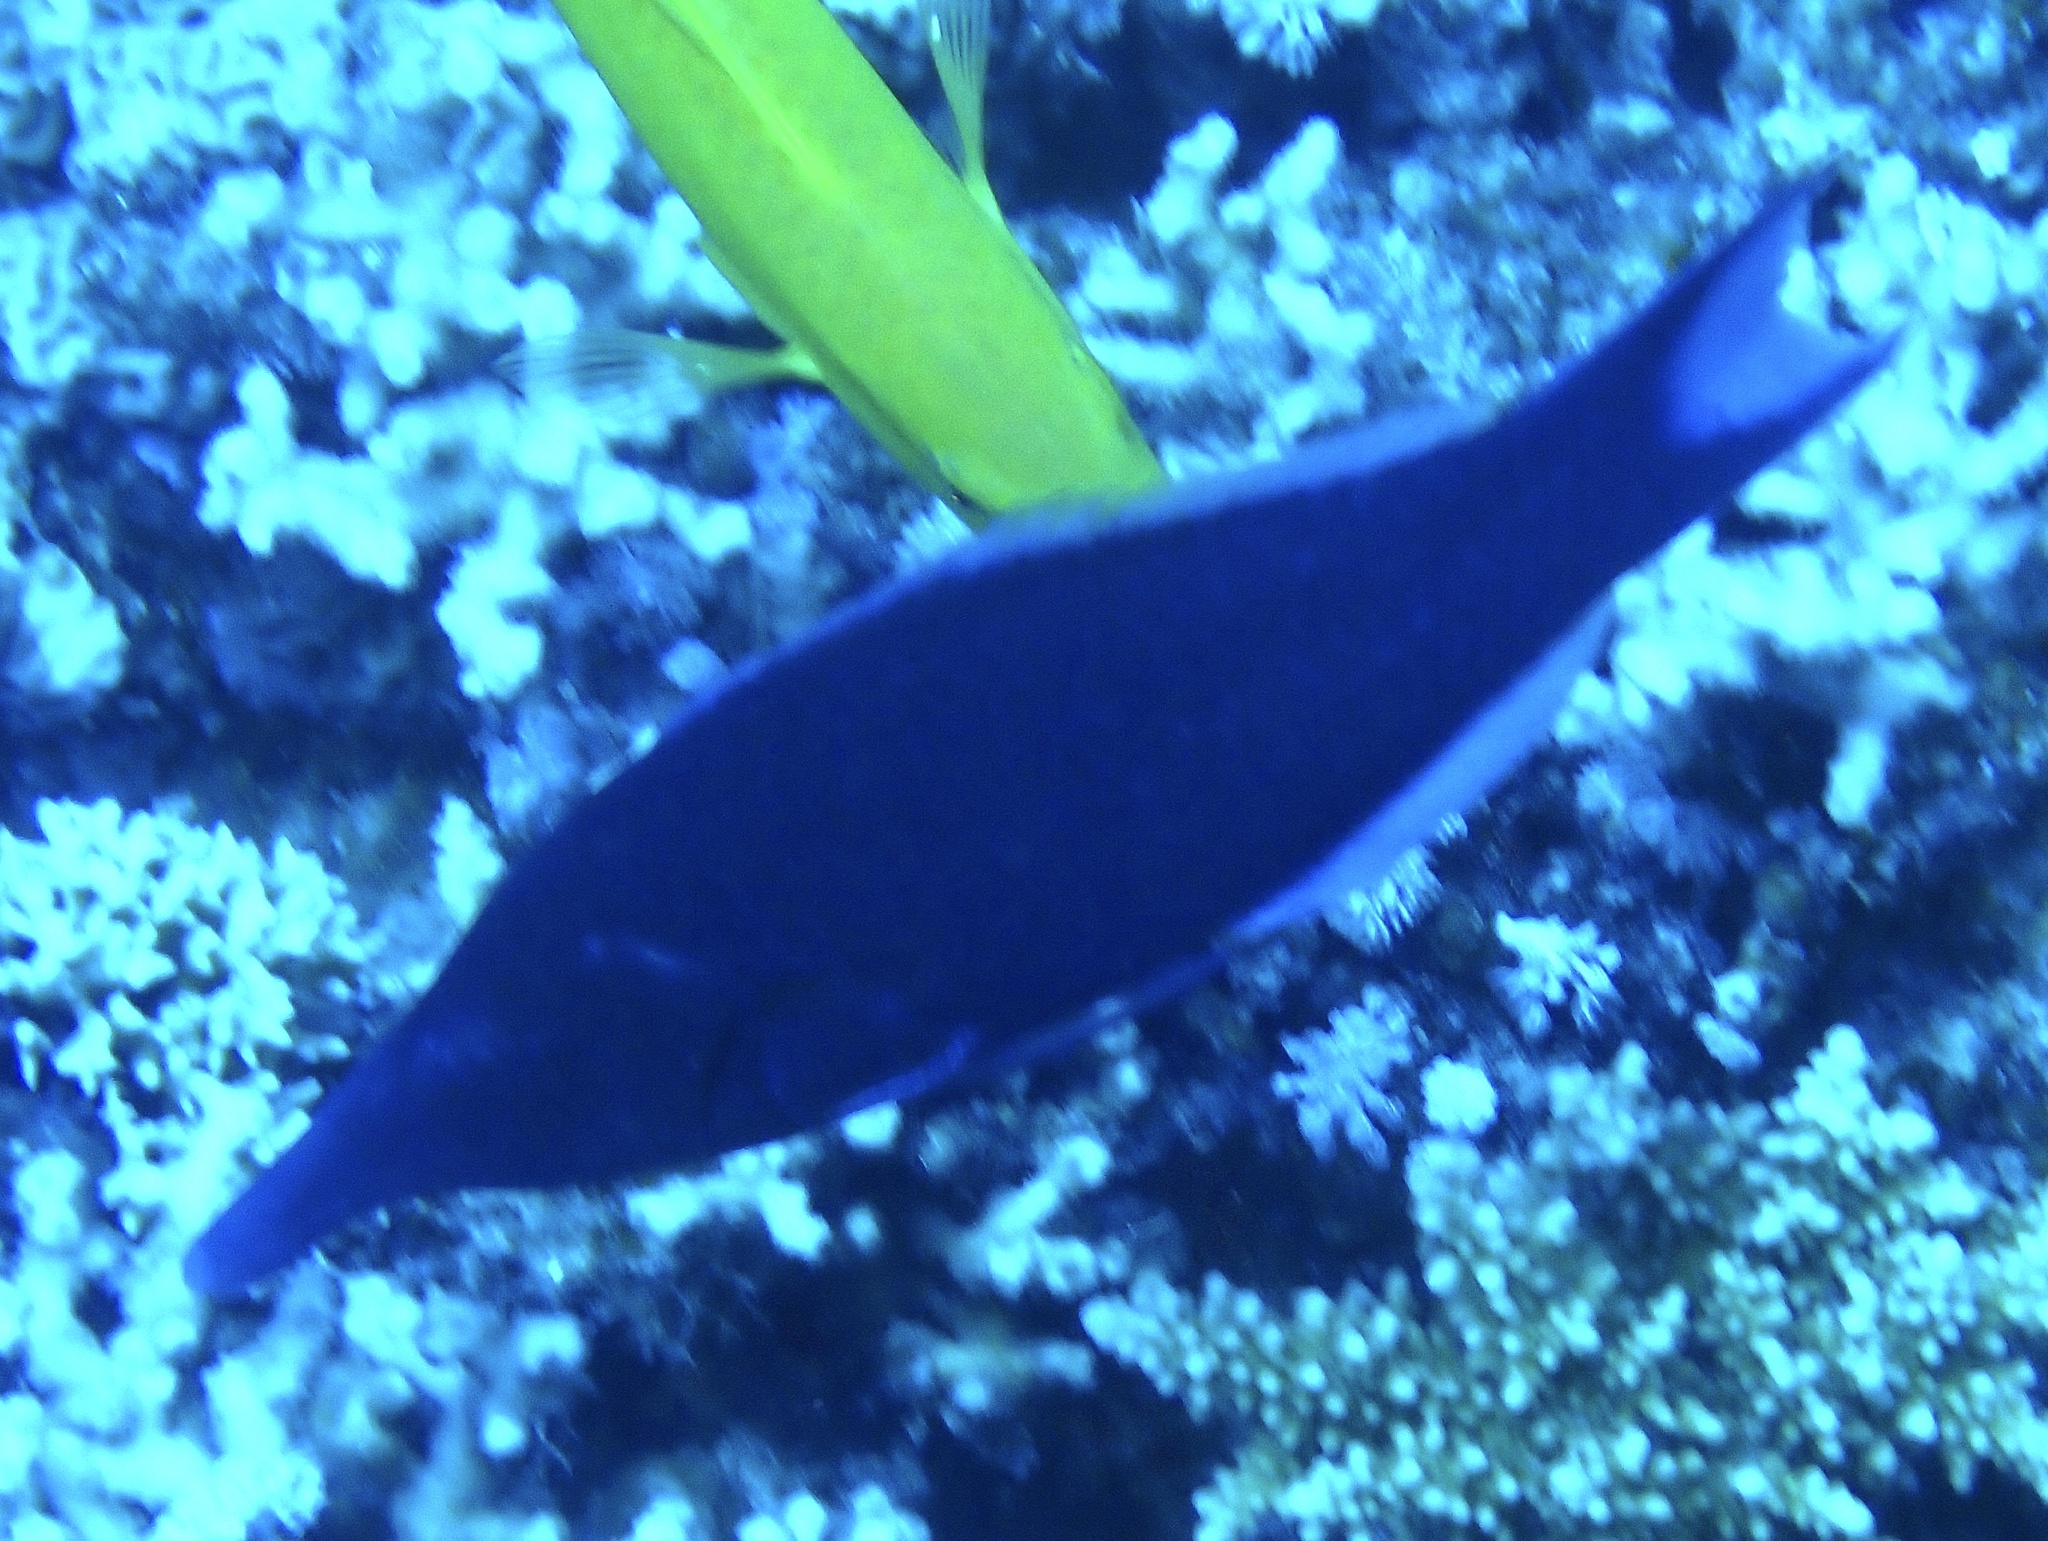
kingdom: Animalia
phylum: Chordata
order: Perciformes
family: Labridae
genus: Gomphosus
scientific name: Gomphosus klunzingeri
